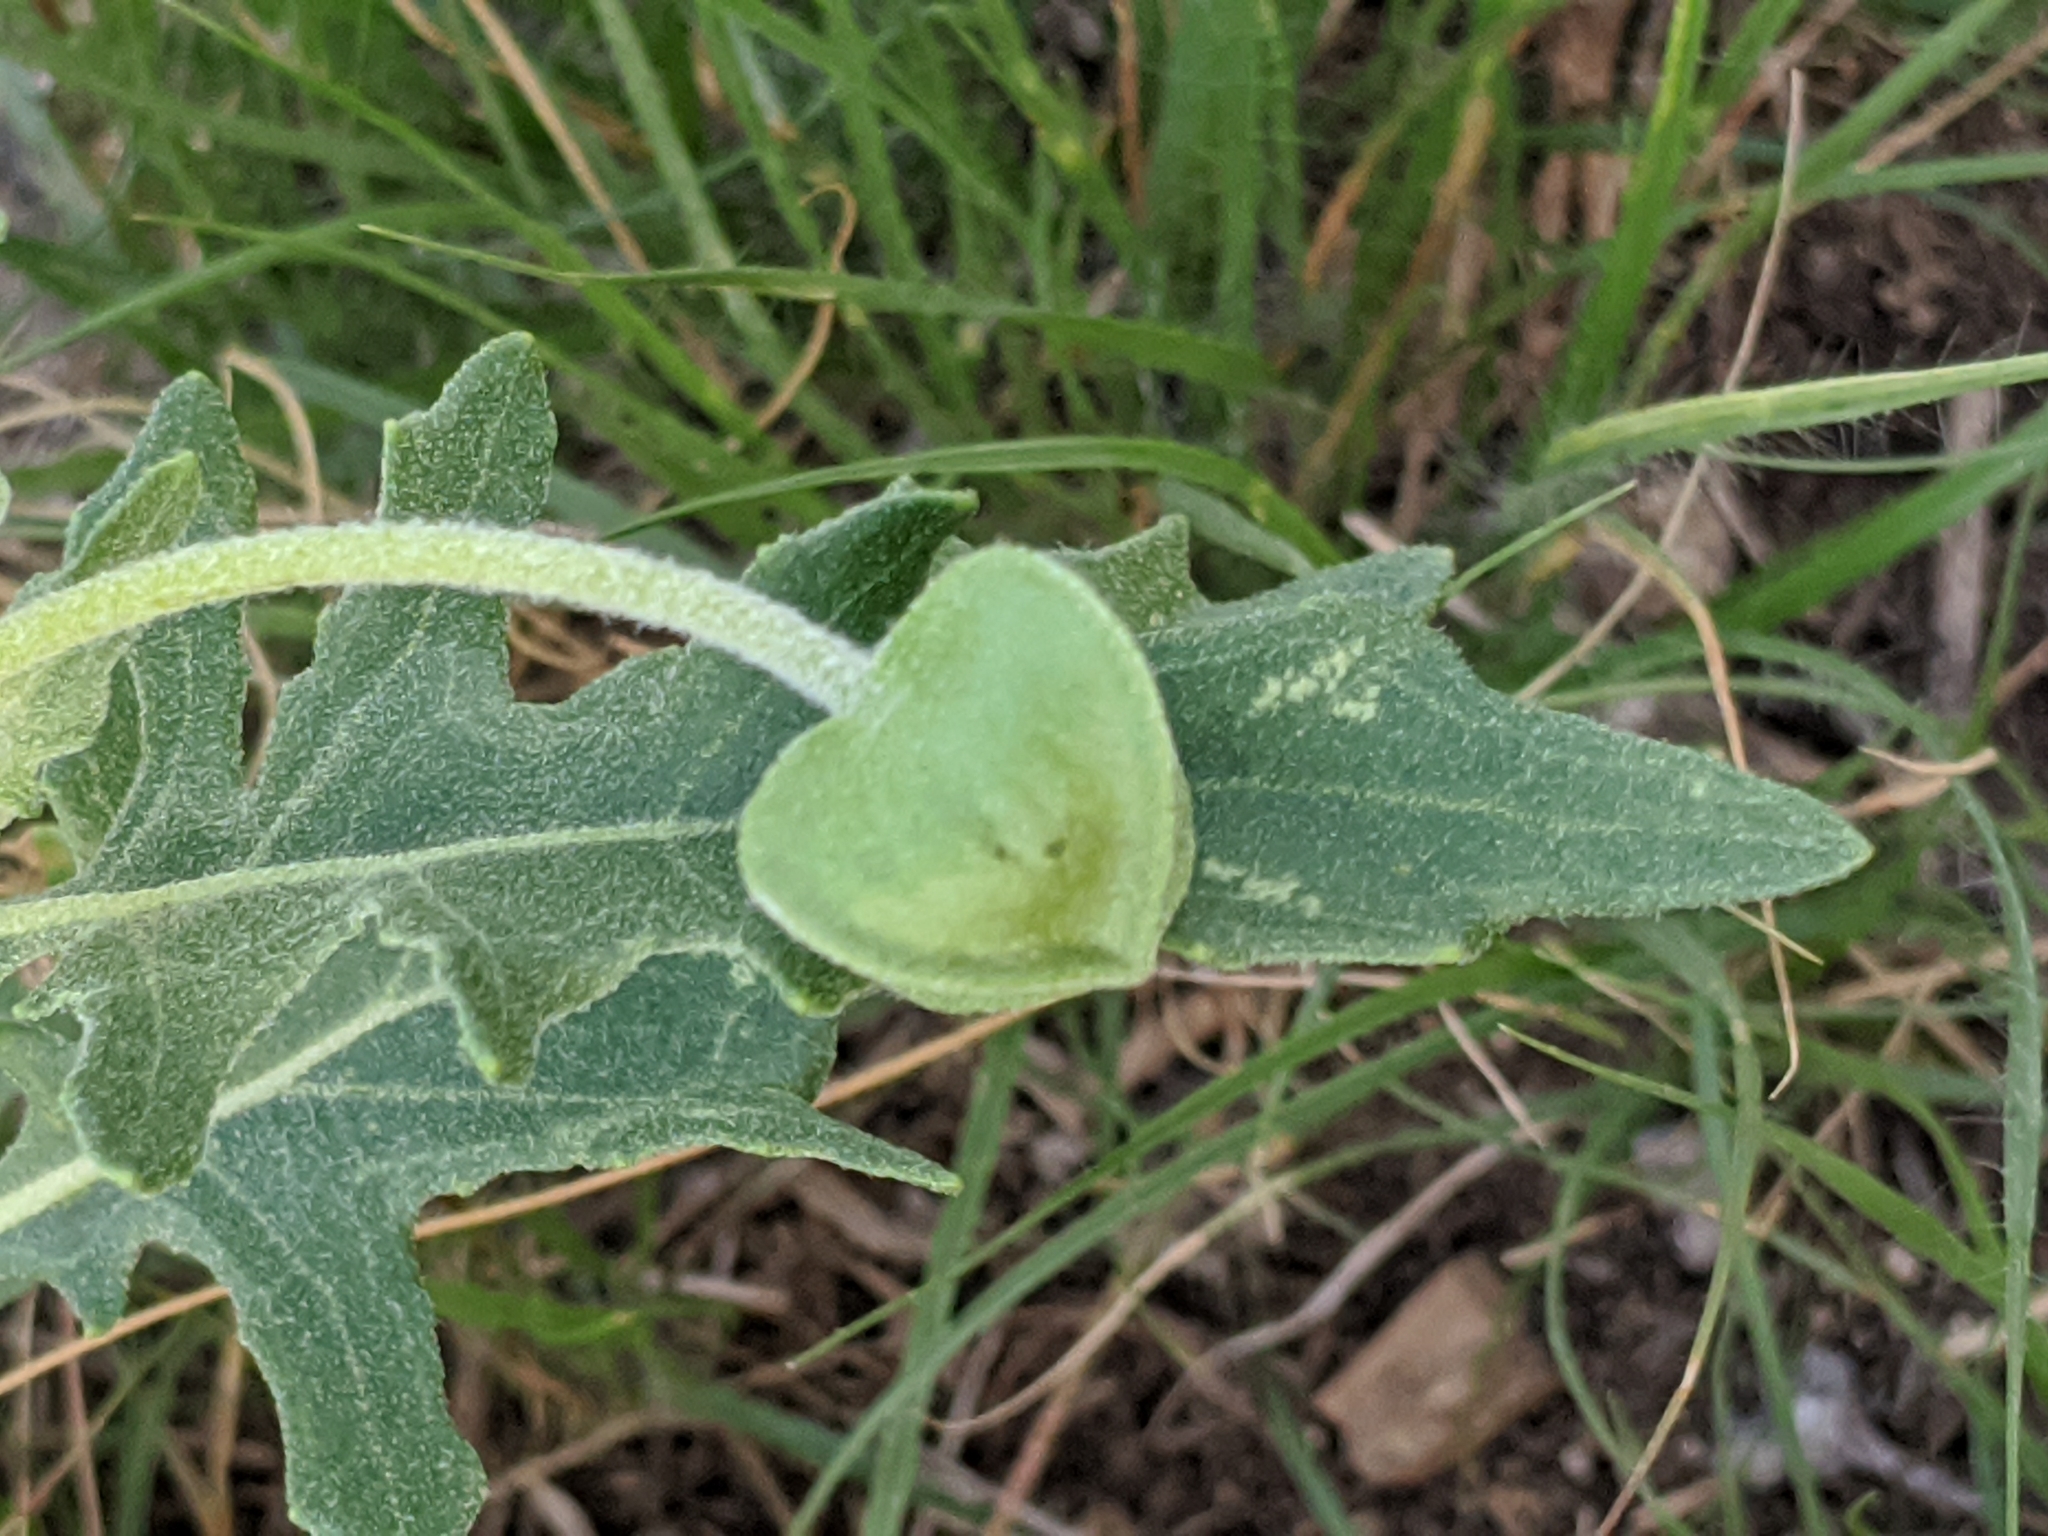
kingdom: Plantae
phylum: Tracheophyta
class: Magnoliopsida
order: Asterales
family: Asteraceae
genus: Tetragonotheca
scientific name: Tetragonotheca texana
